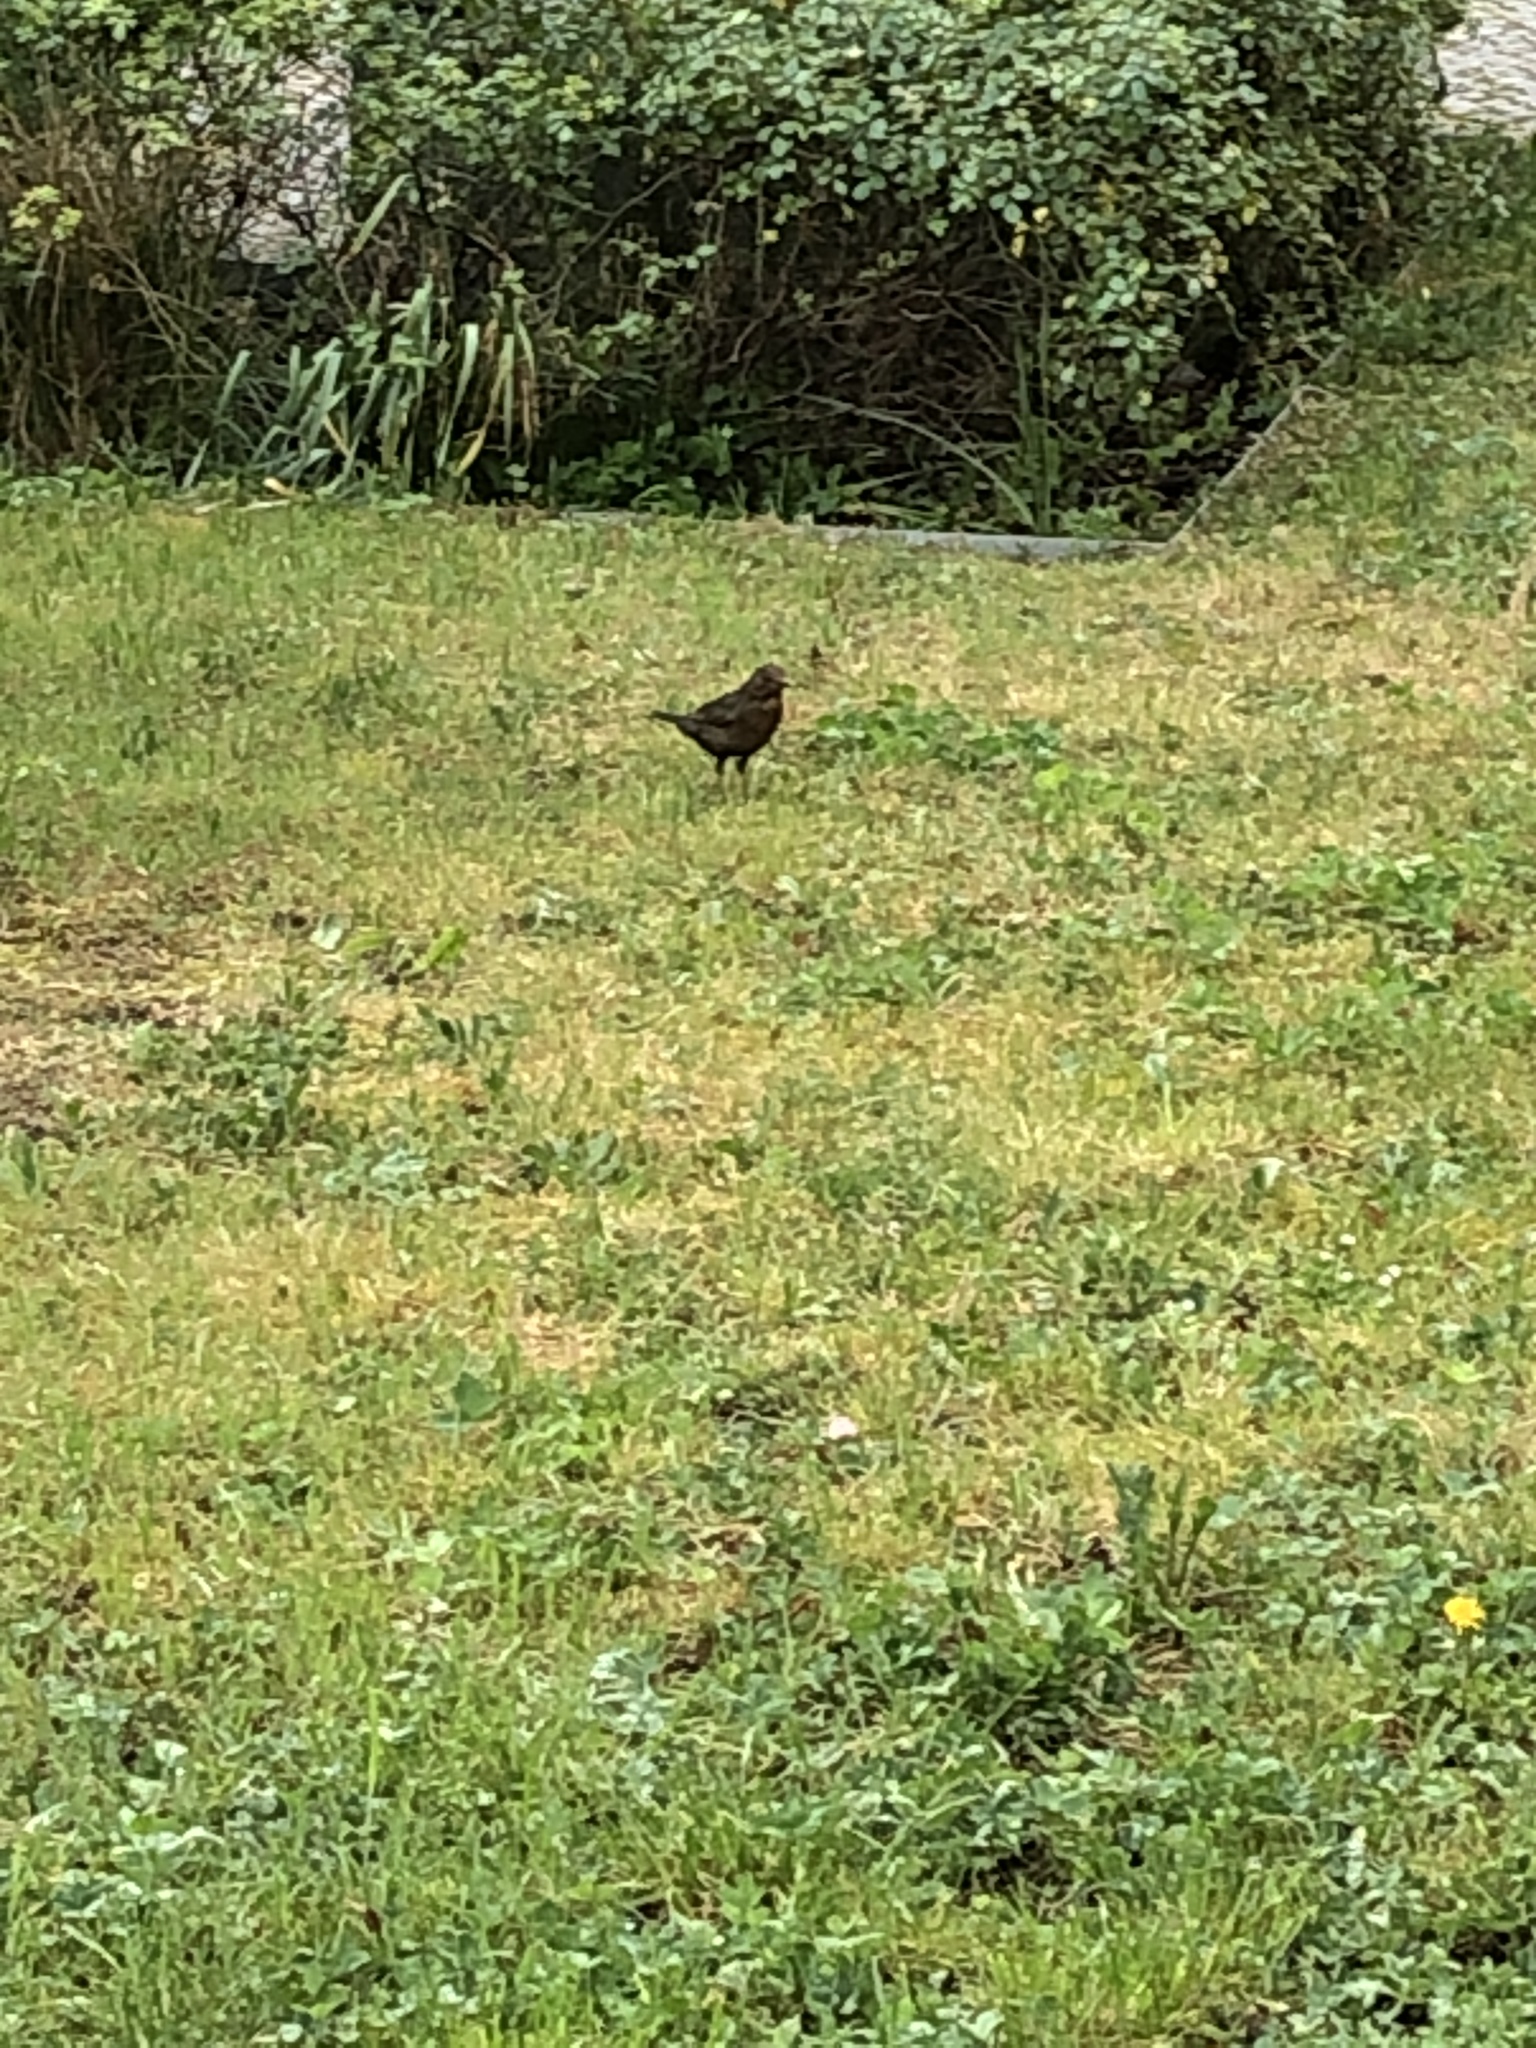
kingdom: Animalia
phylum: Chordata
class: Aves
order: Passeriformes
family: Turdidae
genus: Turdus
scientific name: Turdus merula
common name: Common blackbird
